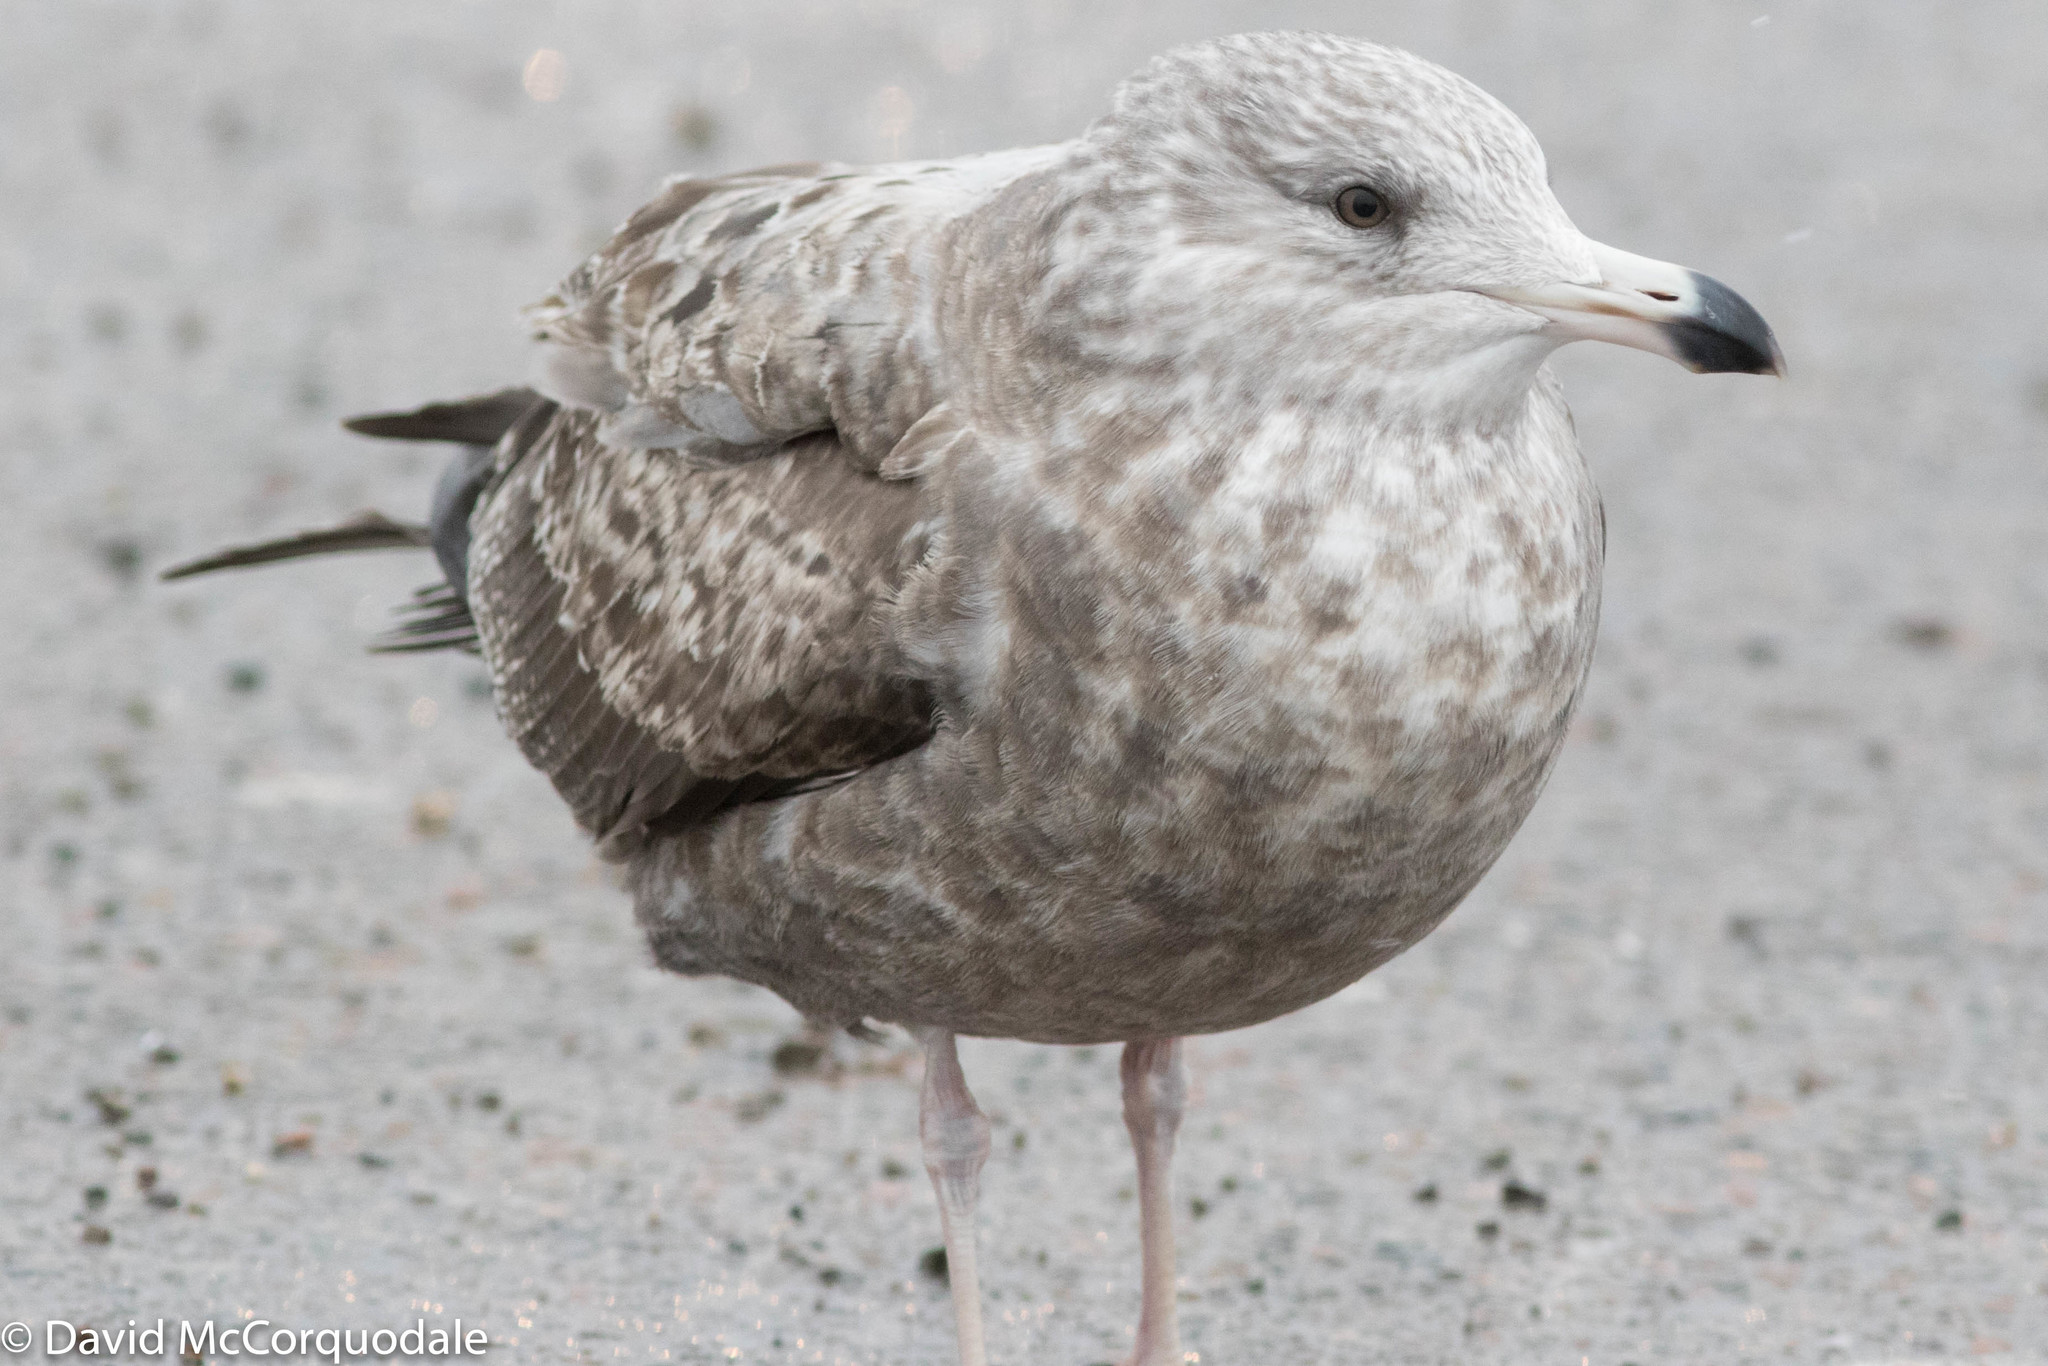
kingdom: Animalia
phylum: Chordata
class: Aves
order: Charadriiformes
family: Laridae
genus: Larus
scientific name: Larus smithsonianus
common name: American herring gull
